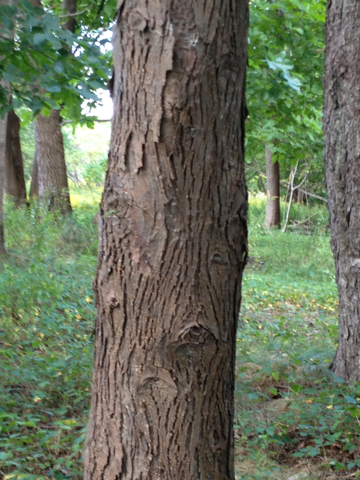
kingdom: Plantae
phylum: Tracheophyta
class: Magnoliopsida
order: Fagales
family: Juglandaceae
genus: Carya
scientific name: Carya ovata
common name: Shagbark hickory
